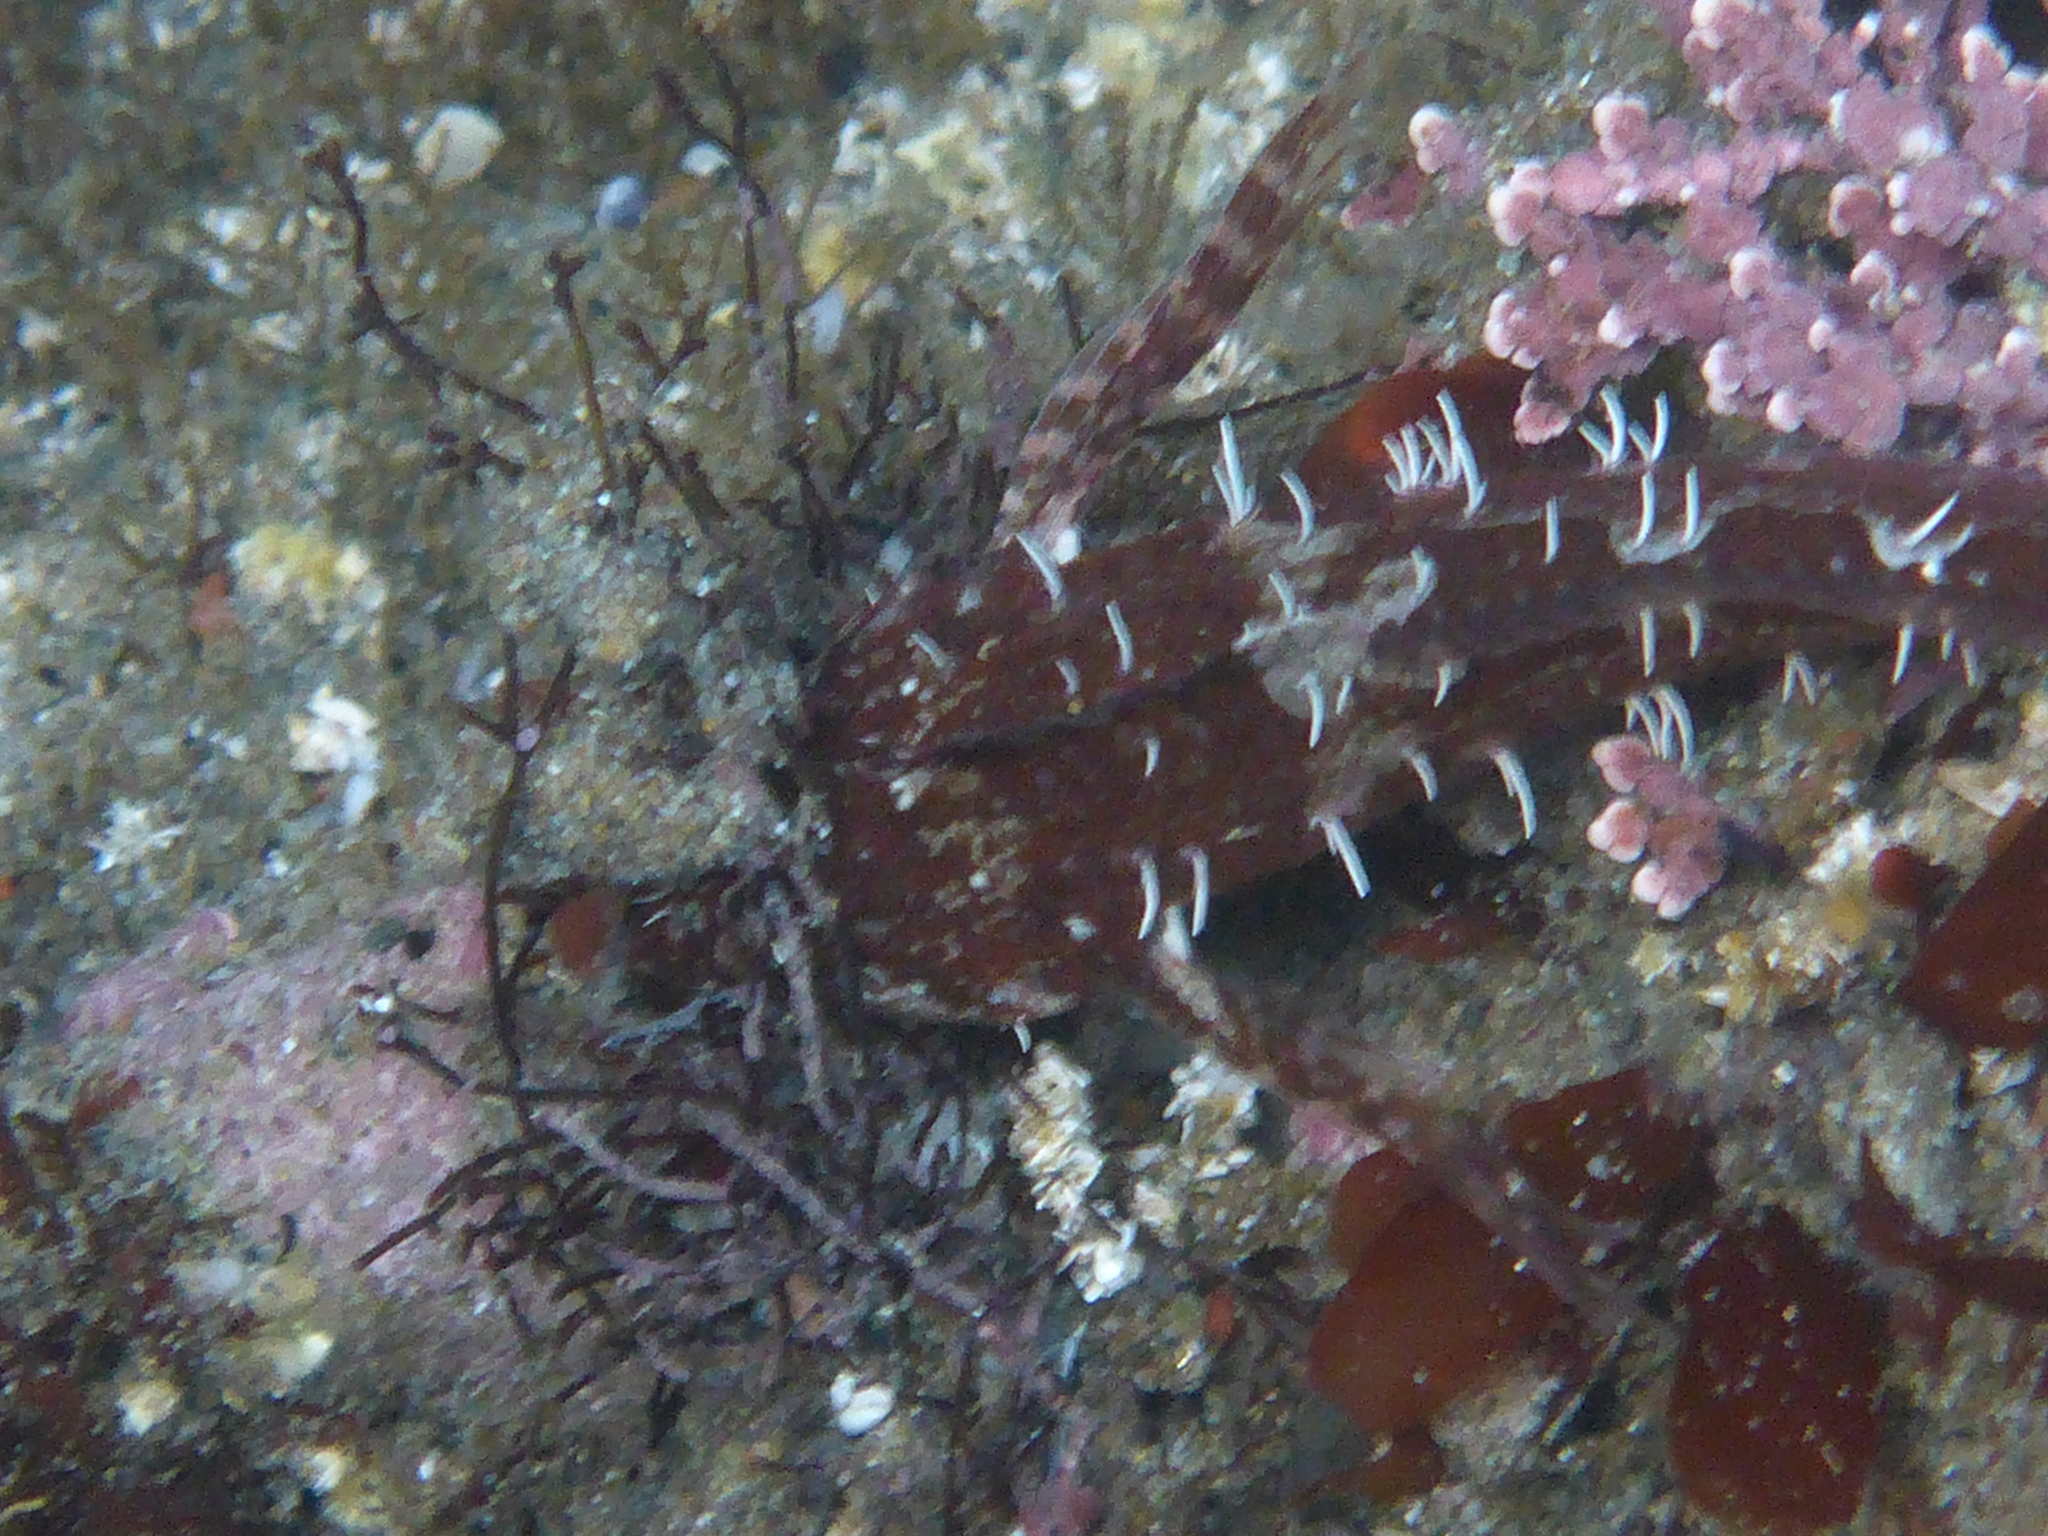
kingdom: Animalia
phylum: Chordata
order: Scorpaeniformes
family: Cottidae
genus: Oligocottus
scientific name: Oligocottus snyderi
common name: Fluffy sculpin
